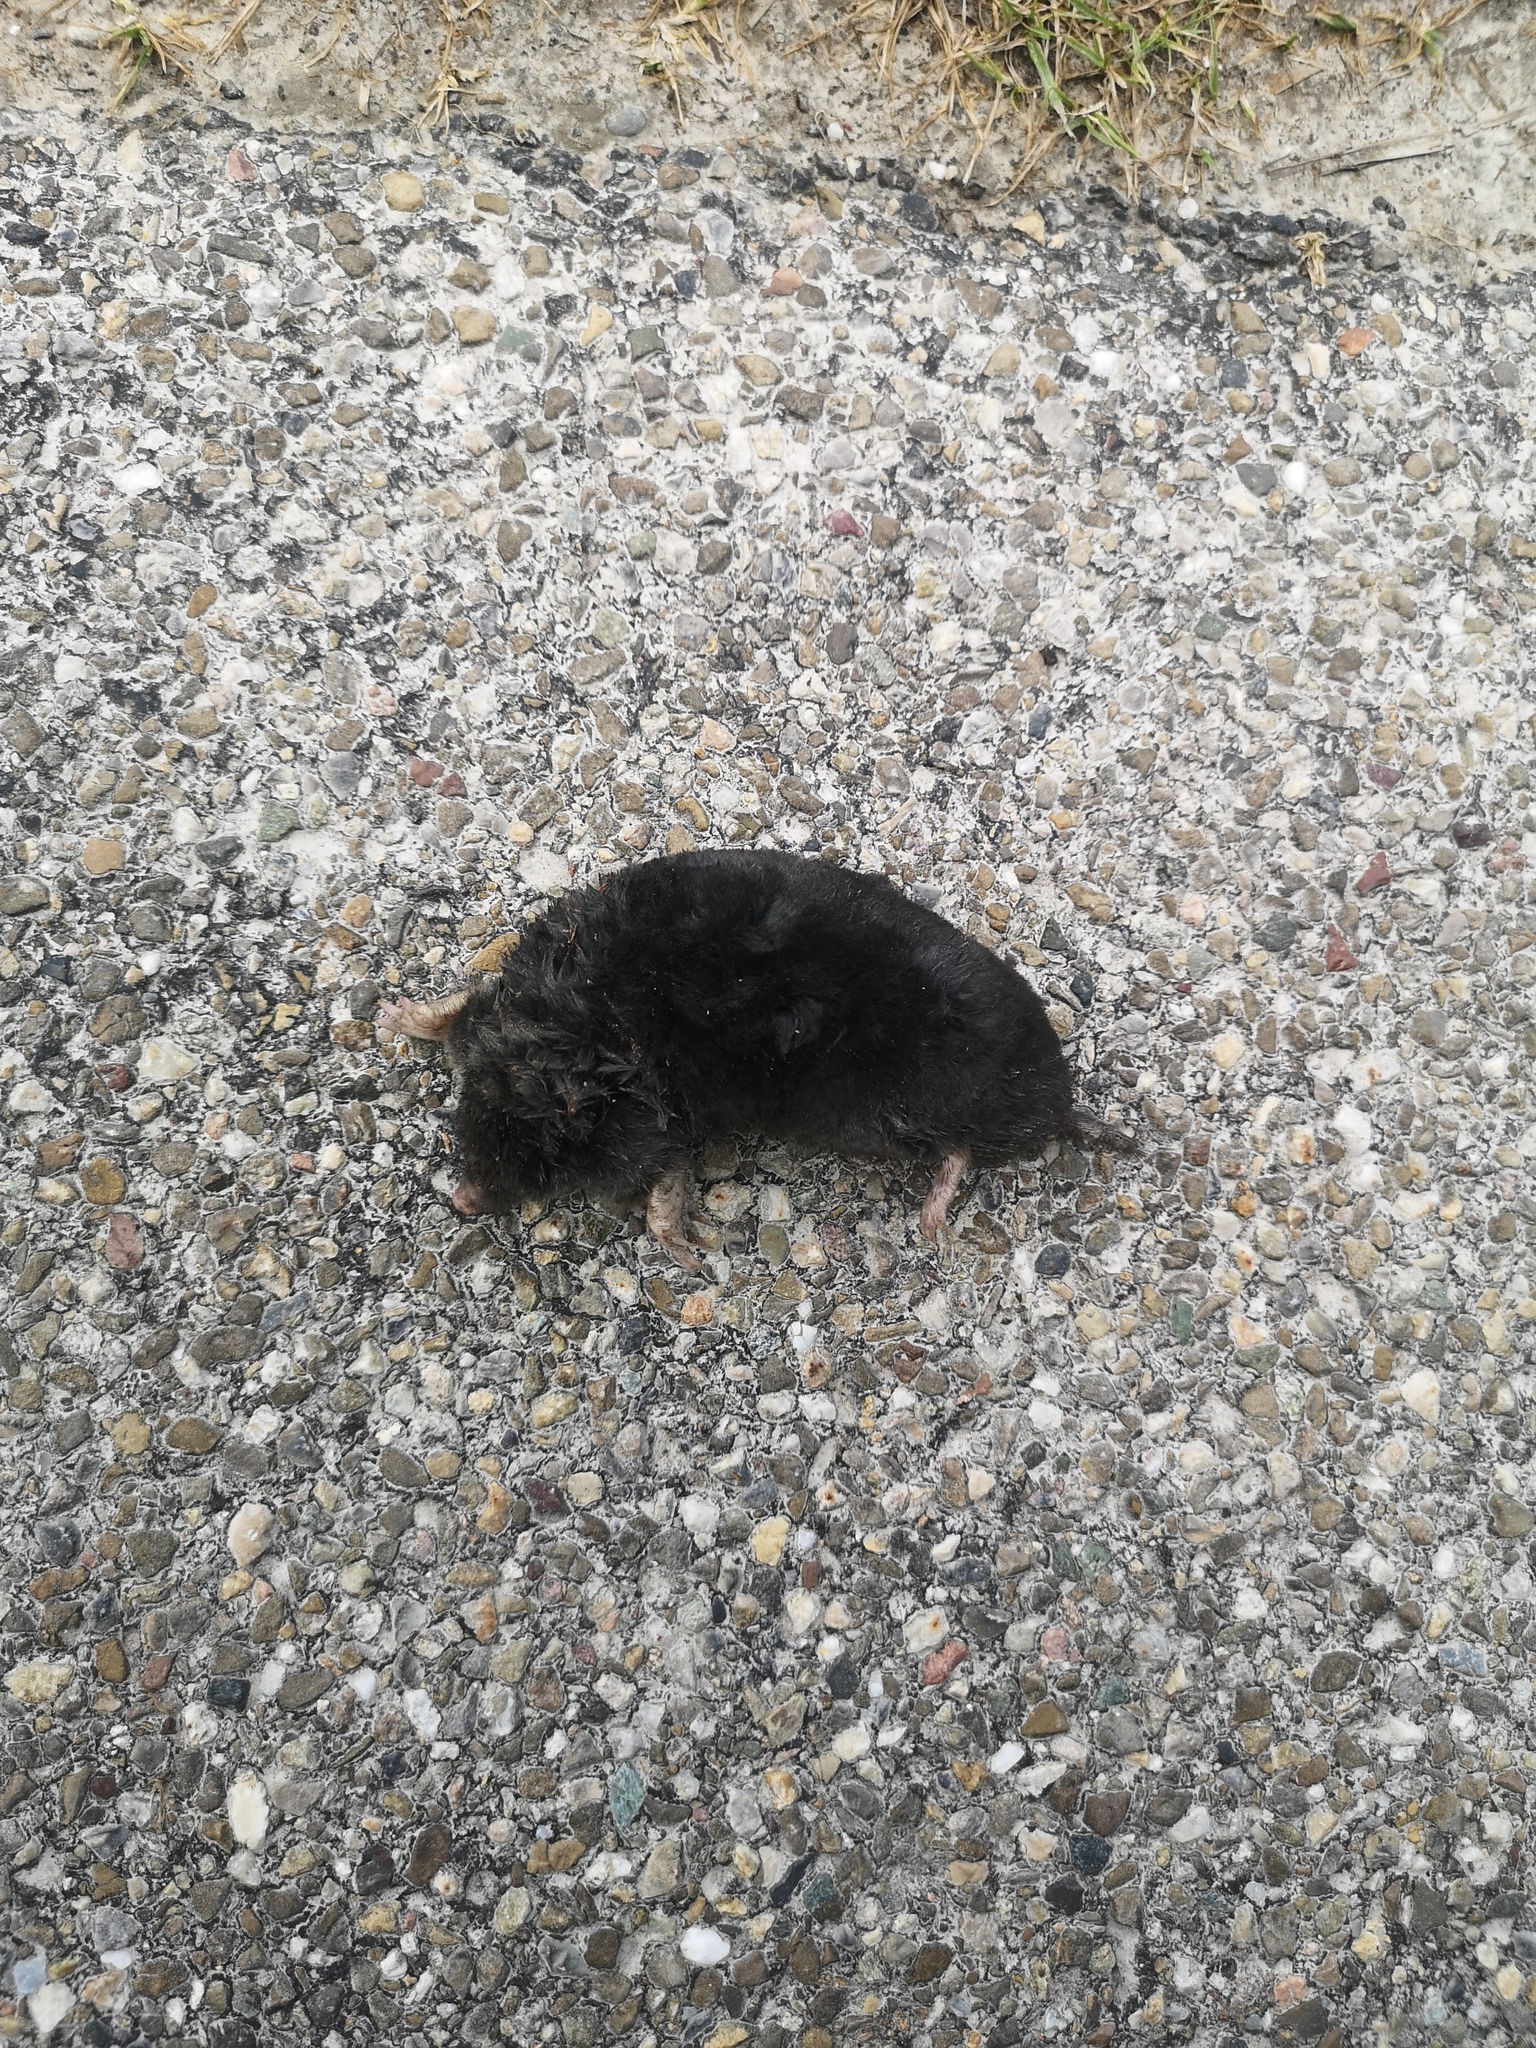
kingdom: Animalia
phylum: Chordata
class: Mammalia
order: Soricomorpha
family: Talpidae
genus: Talpa
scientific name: Talpa europaea
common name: European mole
